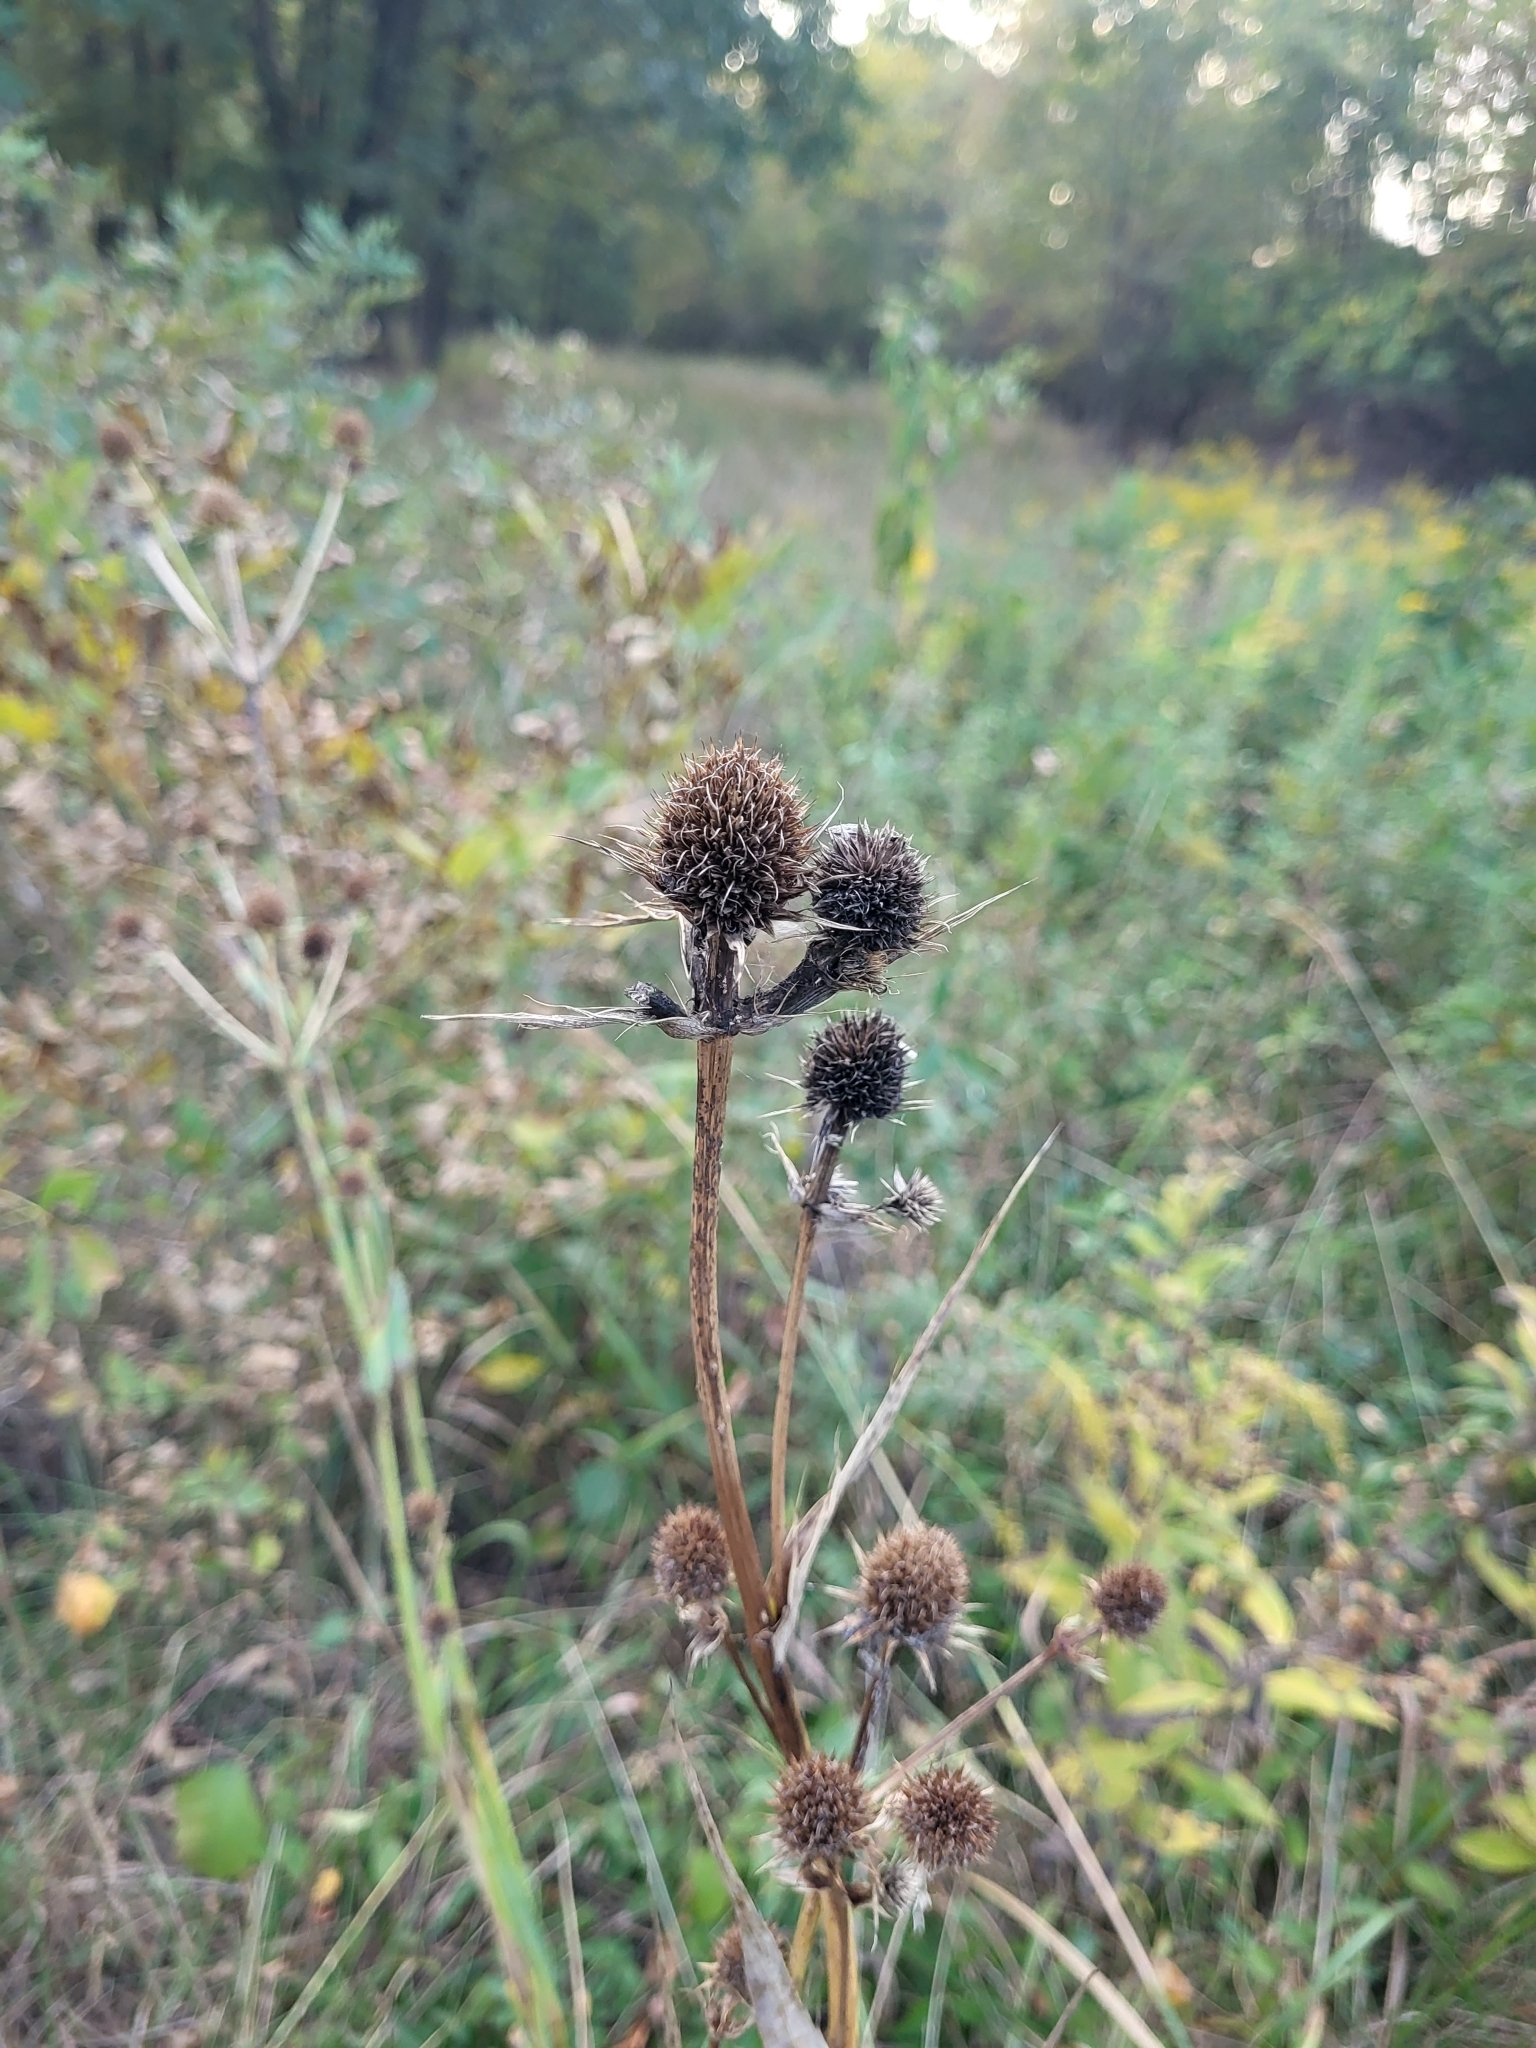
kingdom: Plantae
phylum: Tracheophyta
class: Magnoliopsida
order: Apiales
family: Apiaceae
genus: Eryngium
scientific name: Eryngium yuccifolium
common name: Button eryngo
